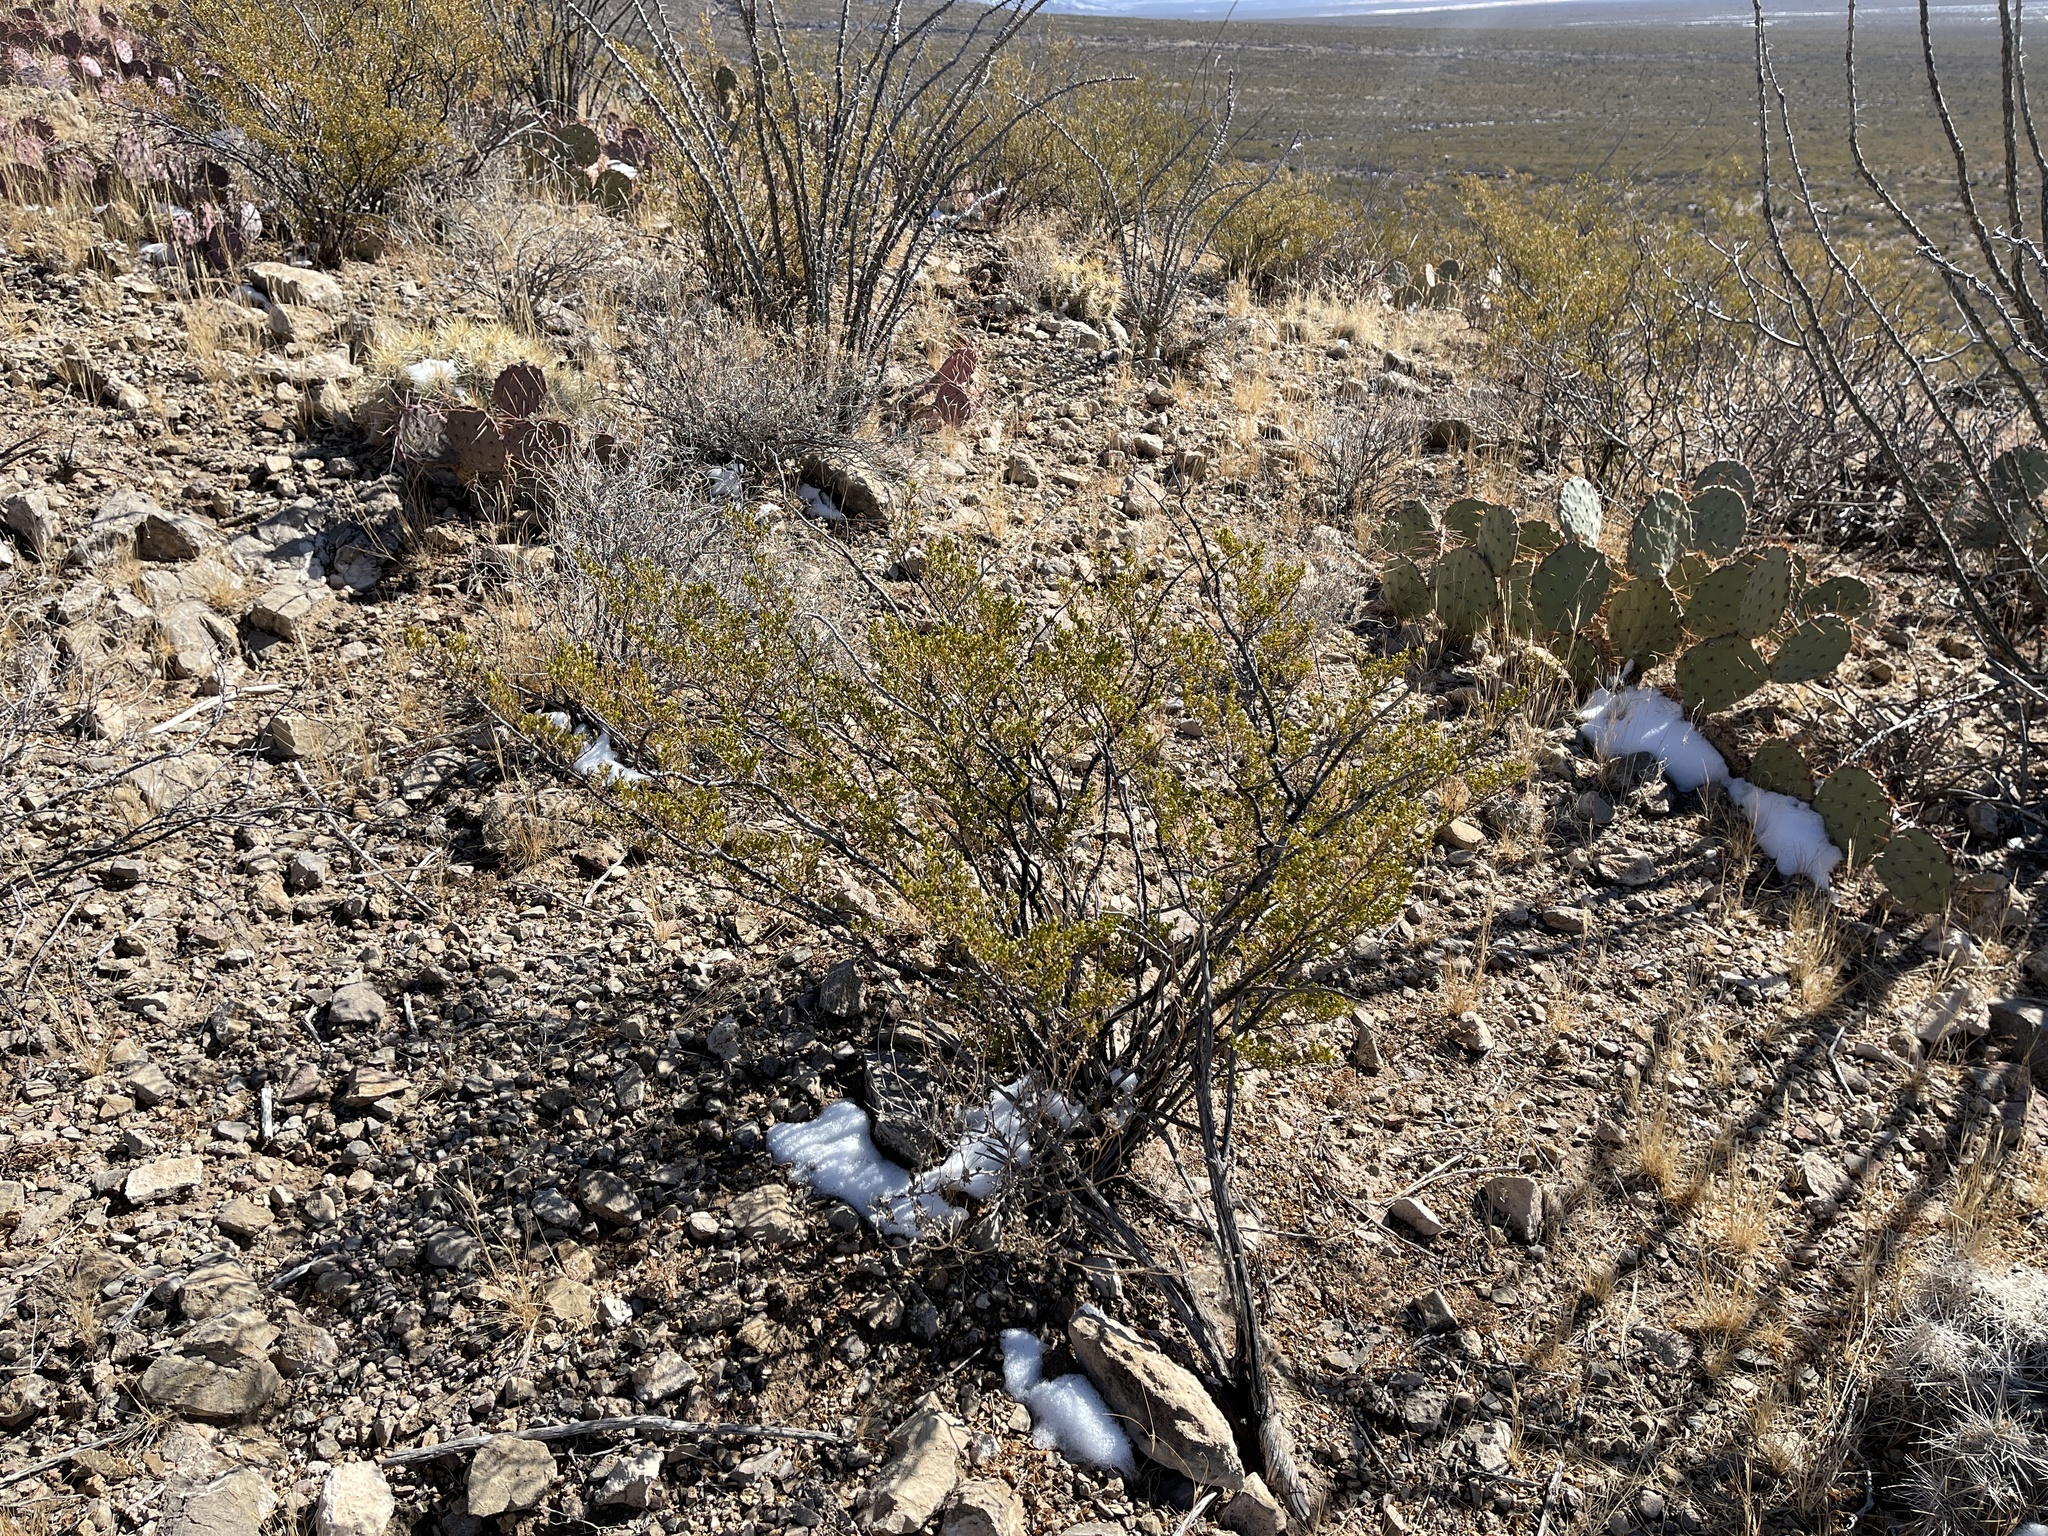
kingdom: Plantae
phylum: Tracheophyta
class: Magnoliopsida
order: Zygophyllales
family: Zygophyllaceae
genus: Larrea
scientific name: Larrea tridentata
